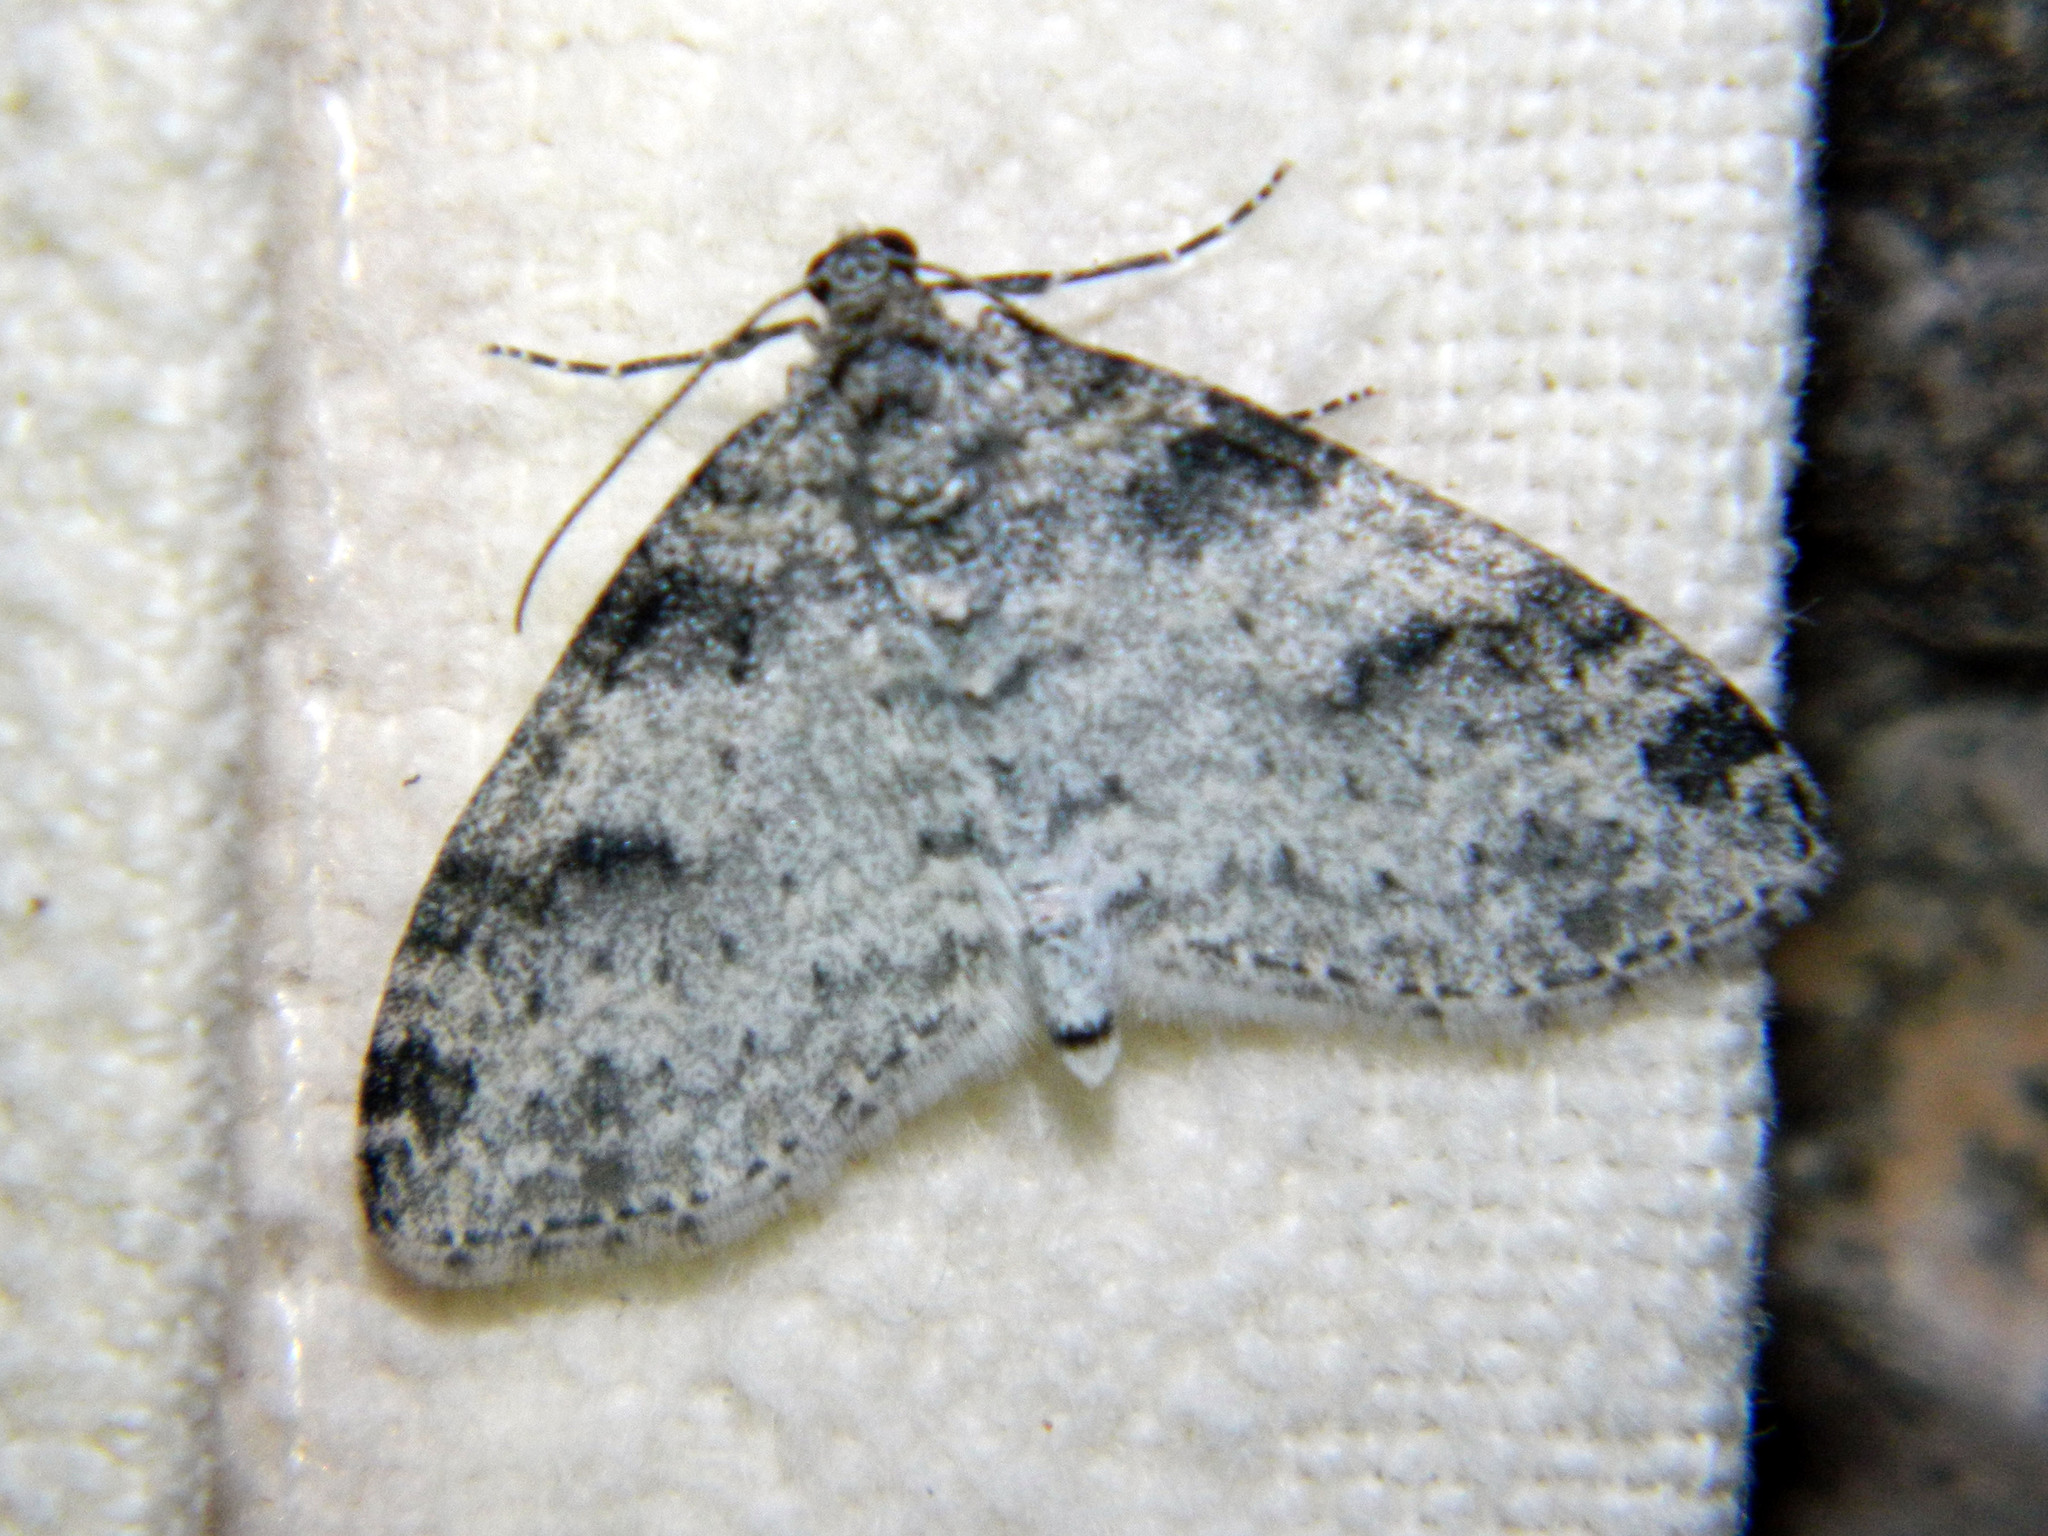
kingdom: Animalia
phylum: Arthropoda
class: Insecta
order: Lepidoptera
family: Geometridae
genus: Lobophora
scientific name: Lobophora nivigerata
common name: Powdered bigwing
